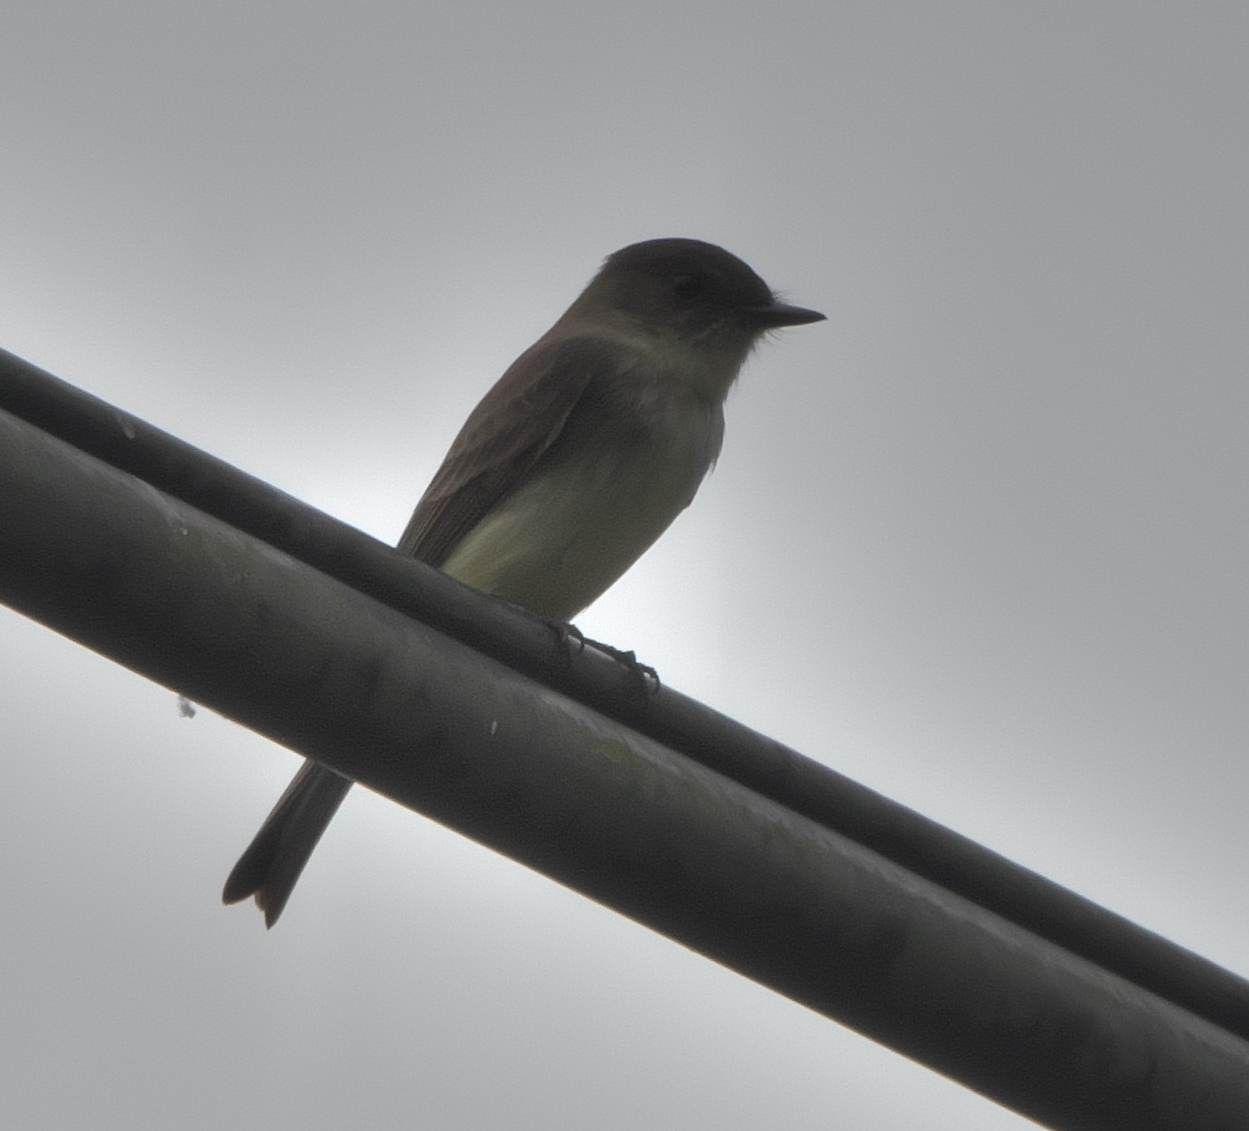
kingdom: Animalia
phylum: Chordata
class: Aves
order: Passeriformes
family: Tyrannidae
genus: Sayornis
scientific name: Sayornis phoebe
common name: Eastern phoebe
